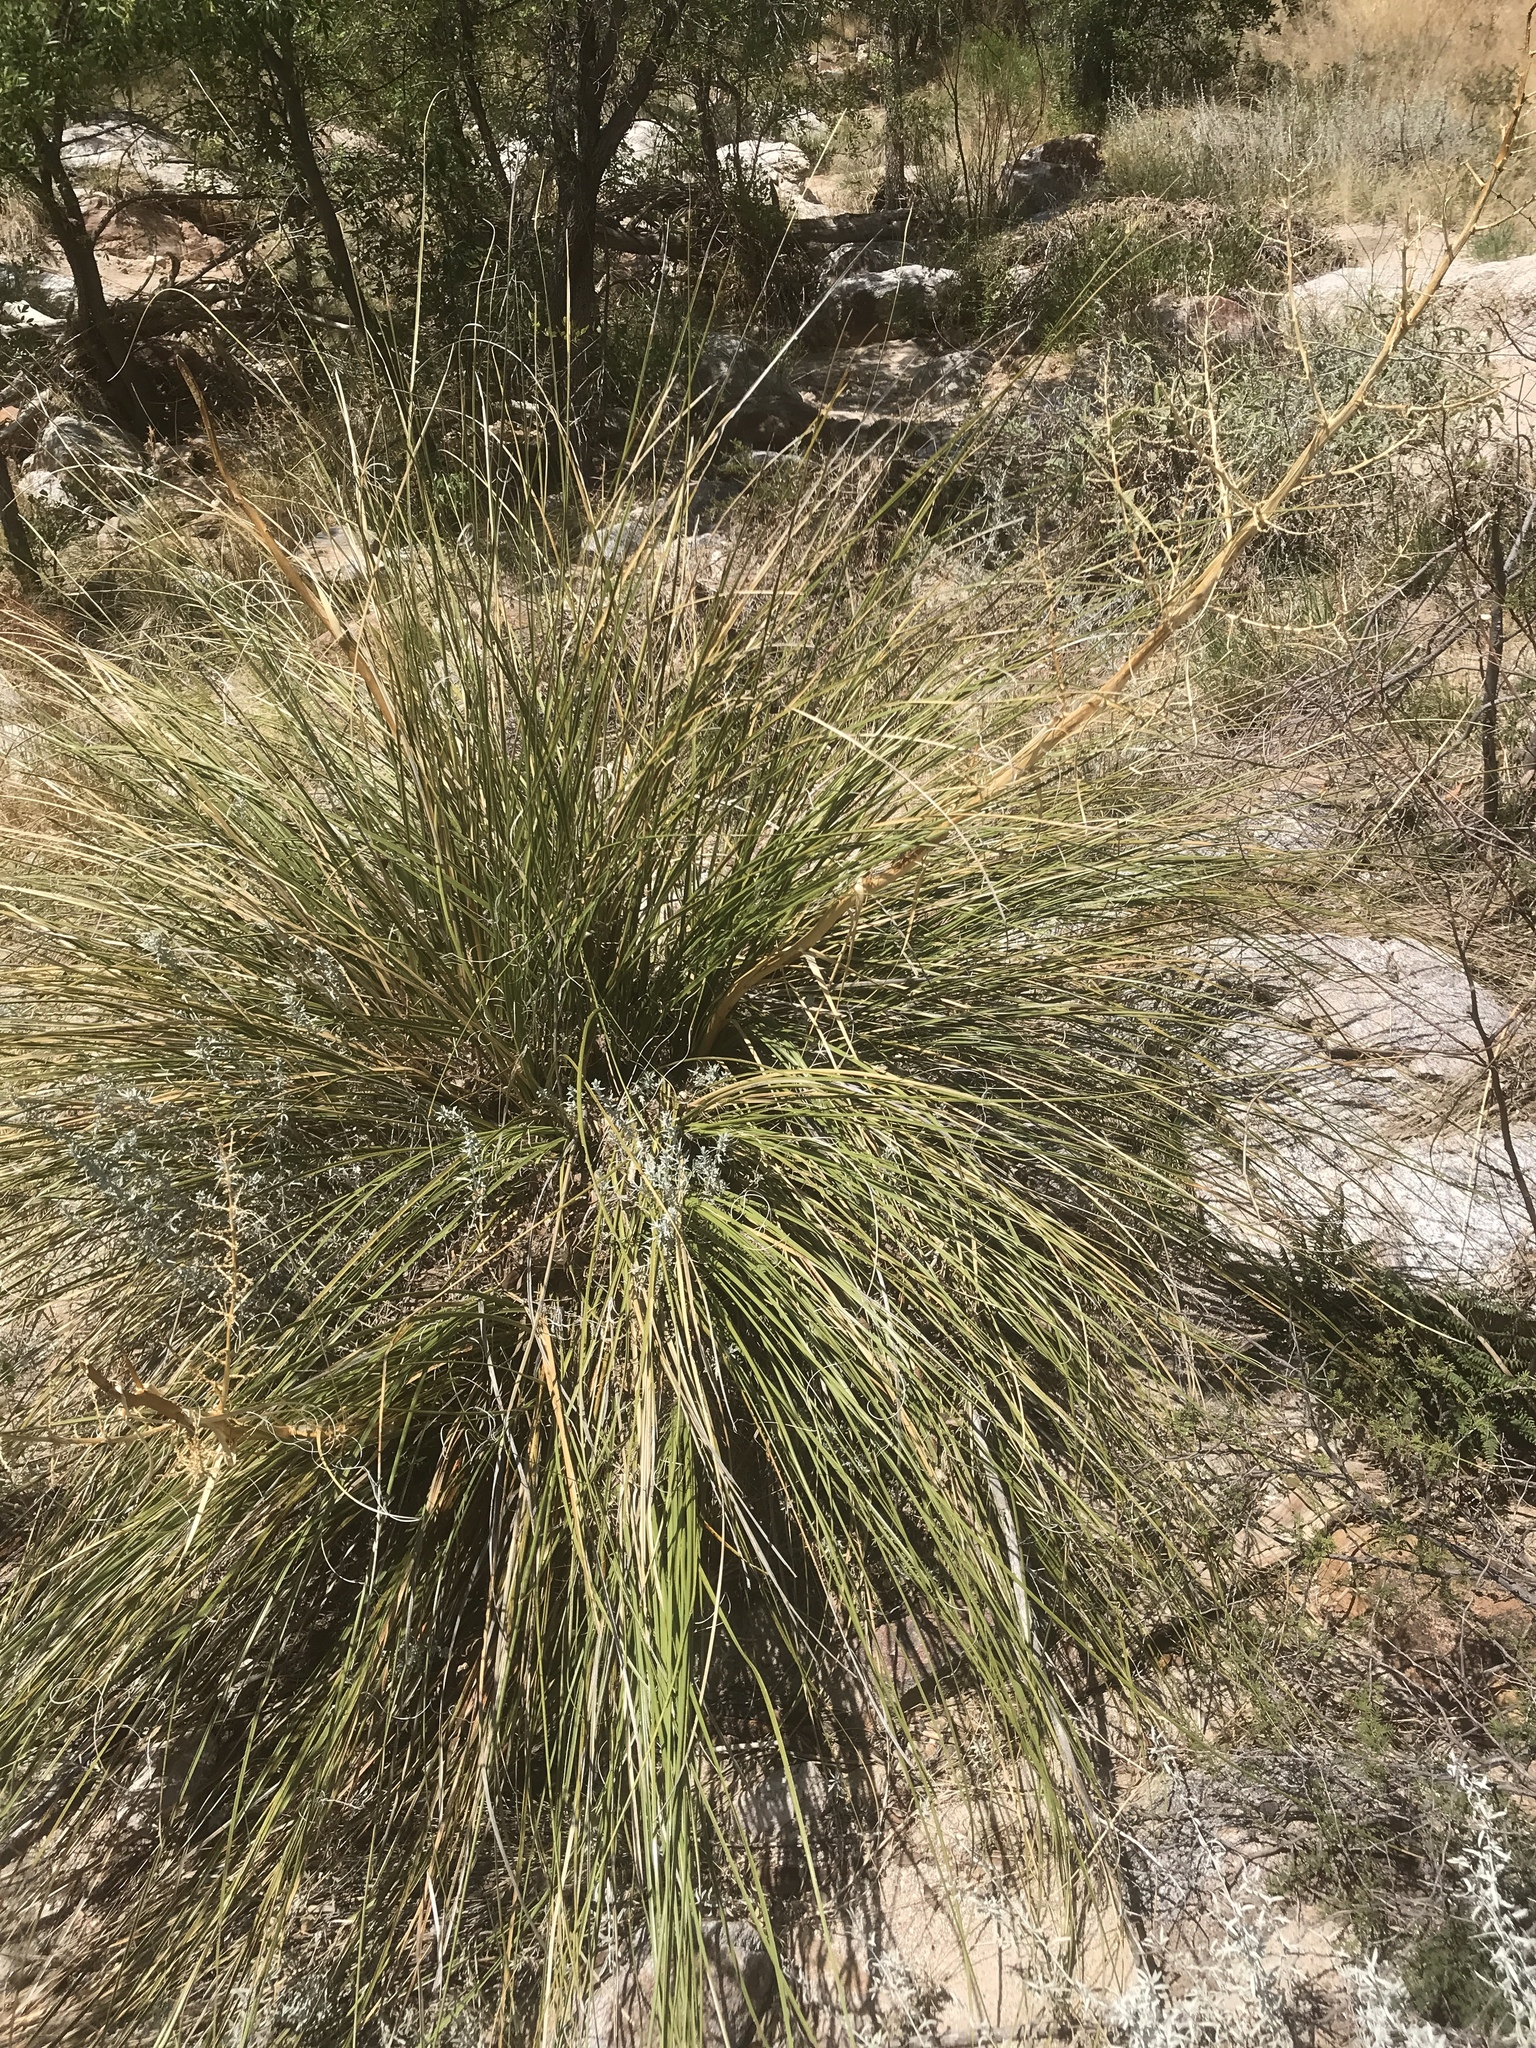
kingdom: Plantae
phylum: Tracheophyta
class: Liliopsida
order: Asparagales
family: Asparagaceae
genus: Nolina
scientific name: Nolina microcarpa
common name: Bear-grass
